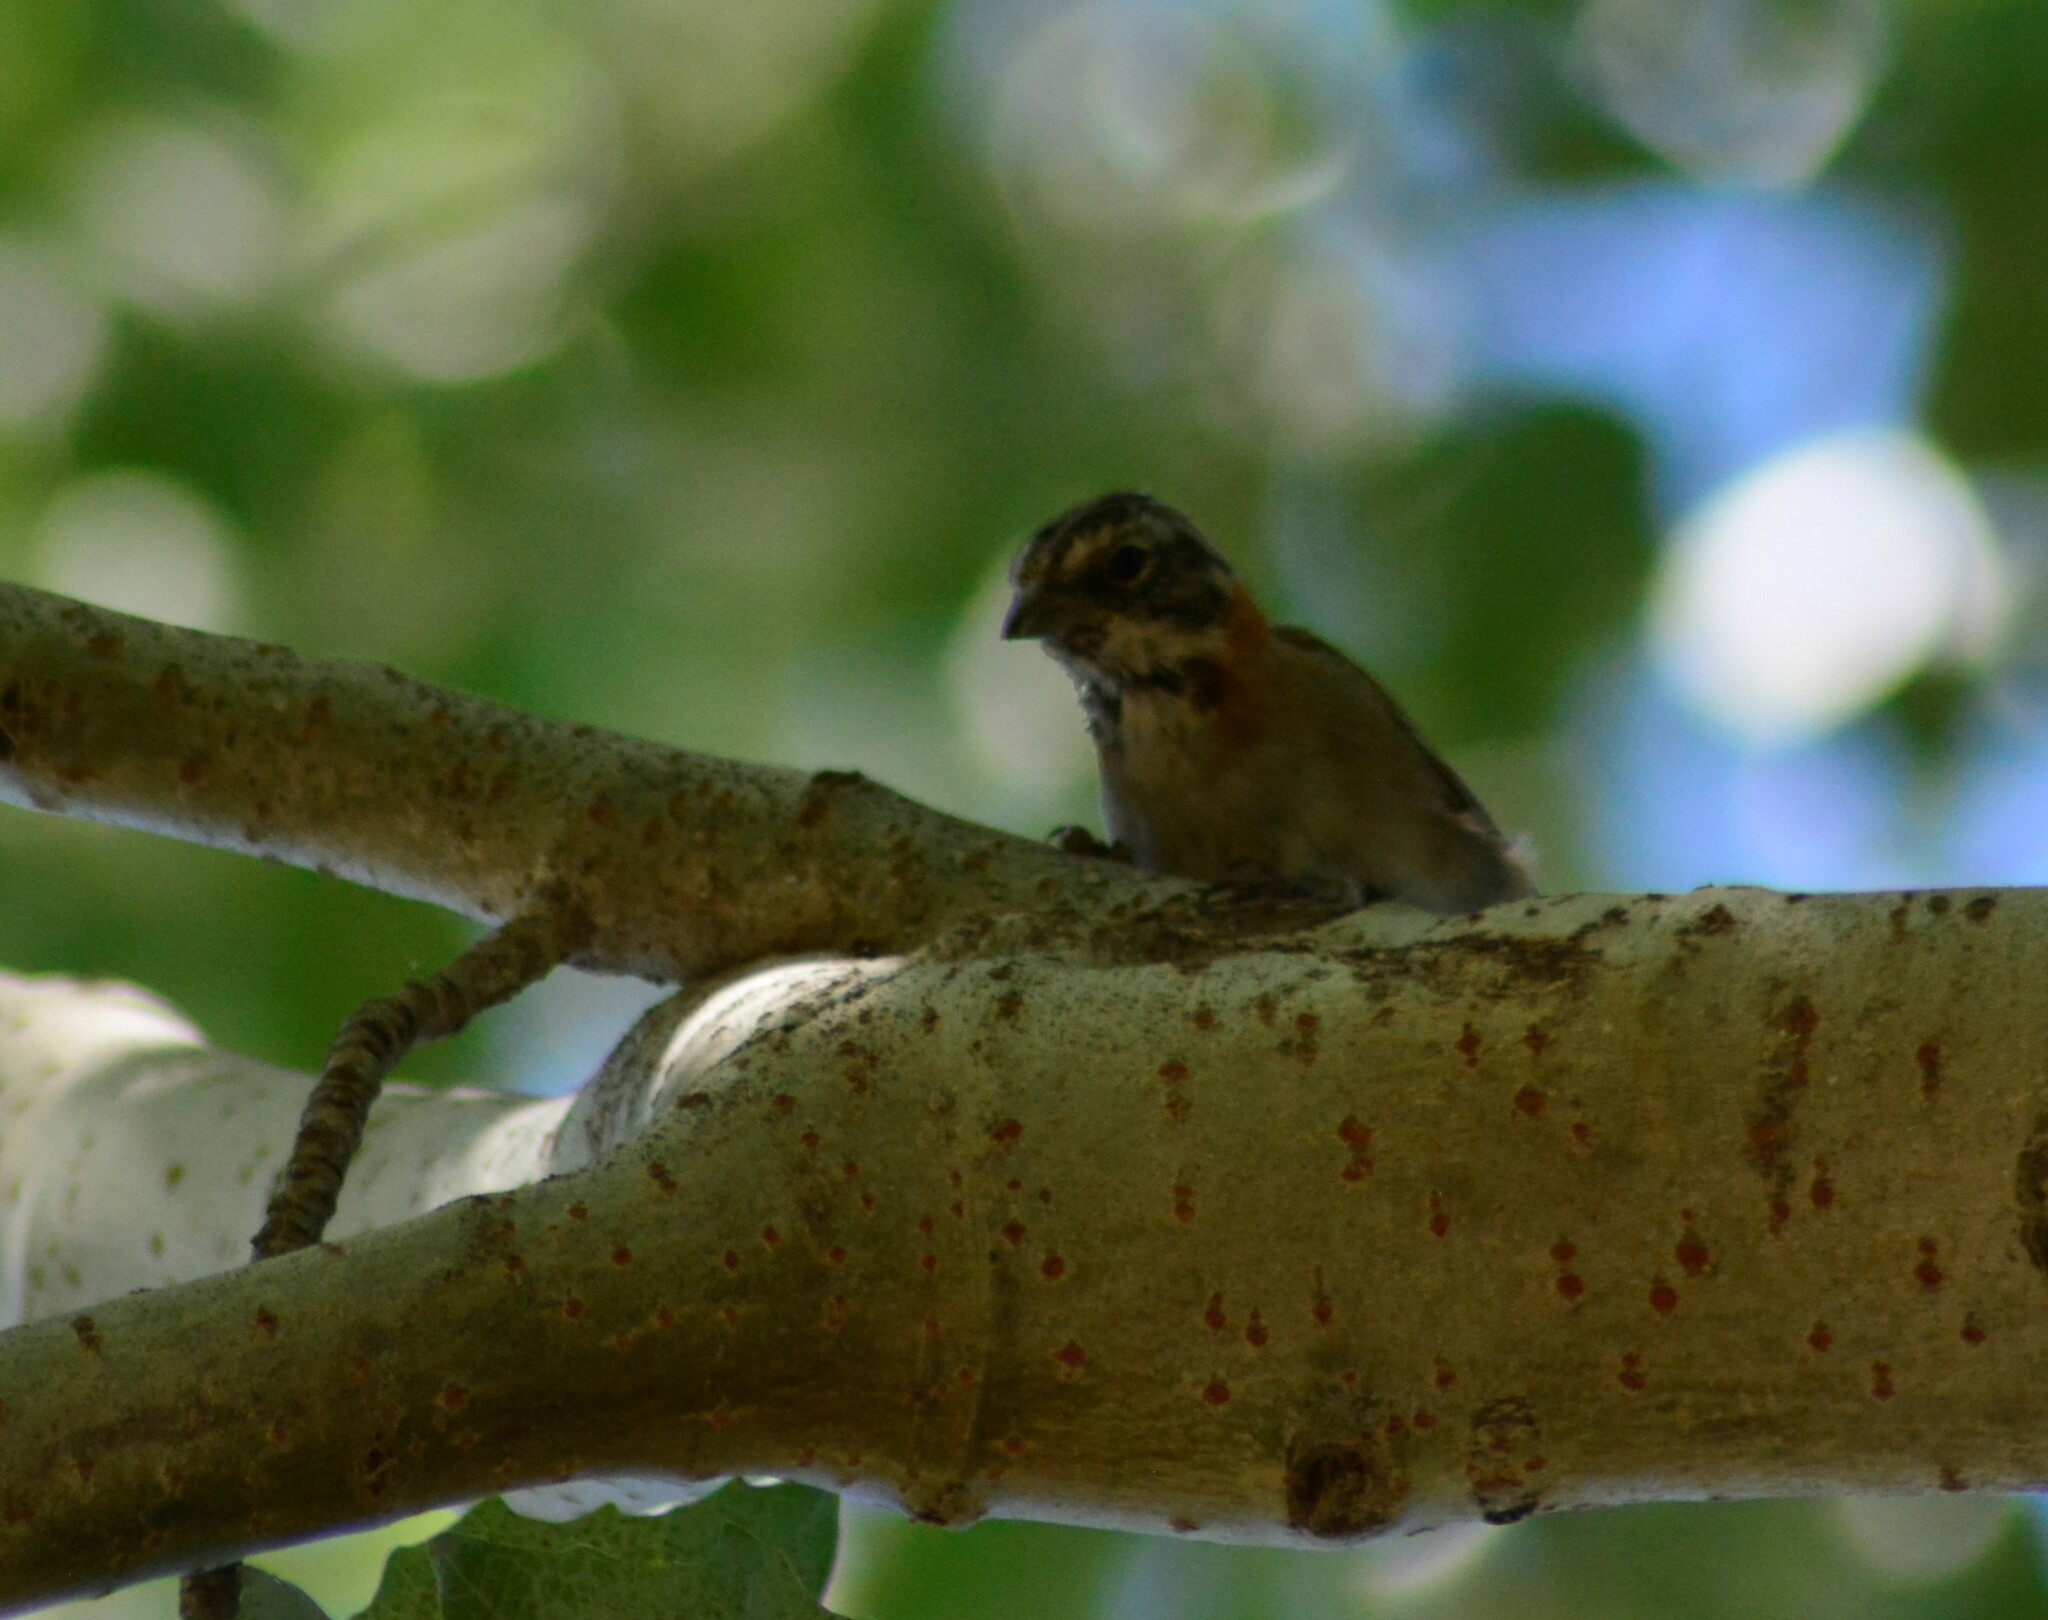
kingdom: Animalia
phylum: Chordata
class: Aves
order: Passeriformes
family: Passerellidae
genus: Zonotrichia
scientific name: Zonotrichia capensis
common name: Rufous-collared sparrow
